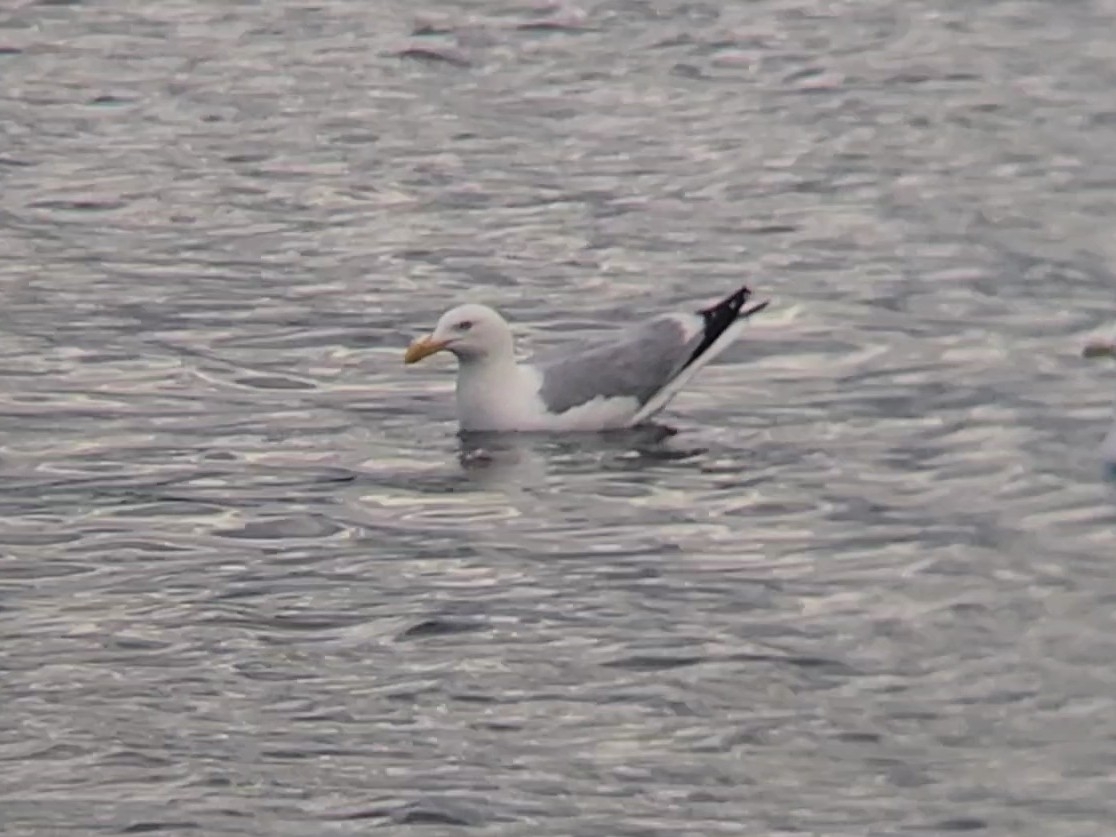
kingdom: Animalia
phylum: Chordata
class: Aves
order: Charadriiformes
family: Laridae
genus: Larus
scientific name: Larus argentatus
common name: Herring gull
